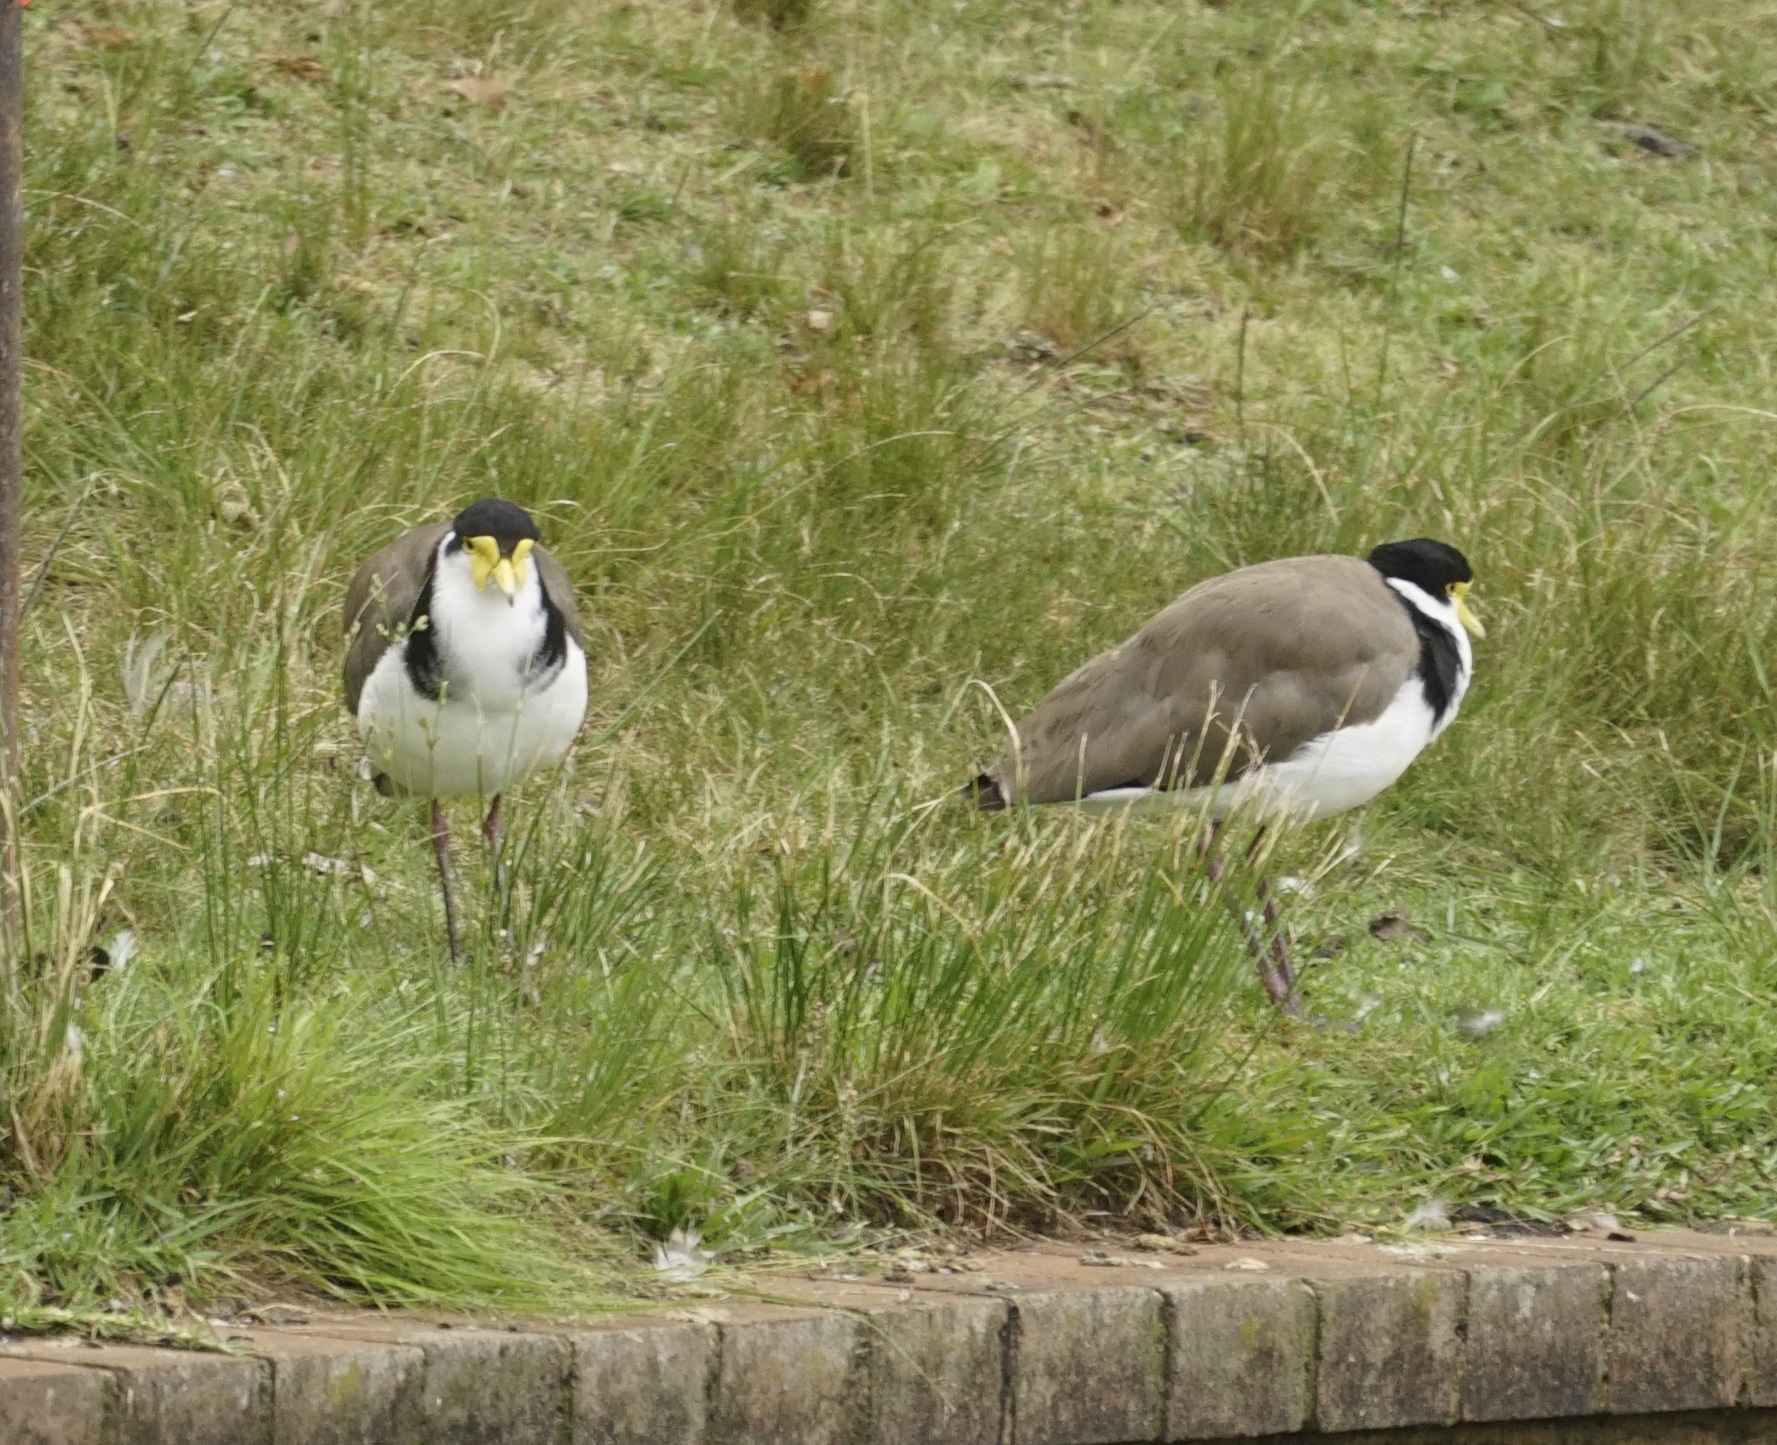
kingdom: Animalia
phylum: Chordata
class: Aves
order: Charadriiformes
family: Charadriidae
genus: Vanellus
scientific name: Vanellus miles
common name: Masked lapwing
